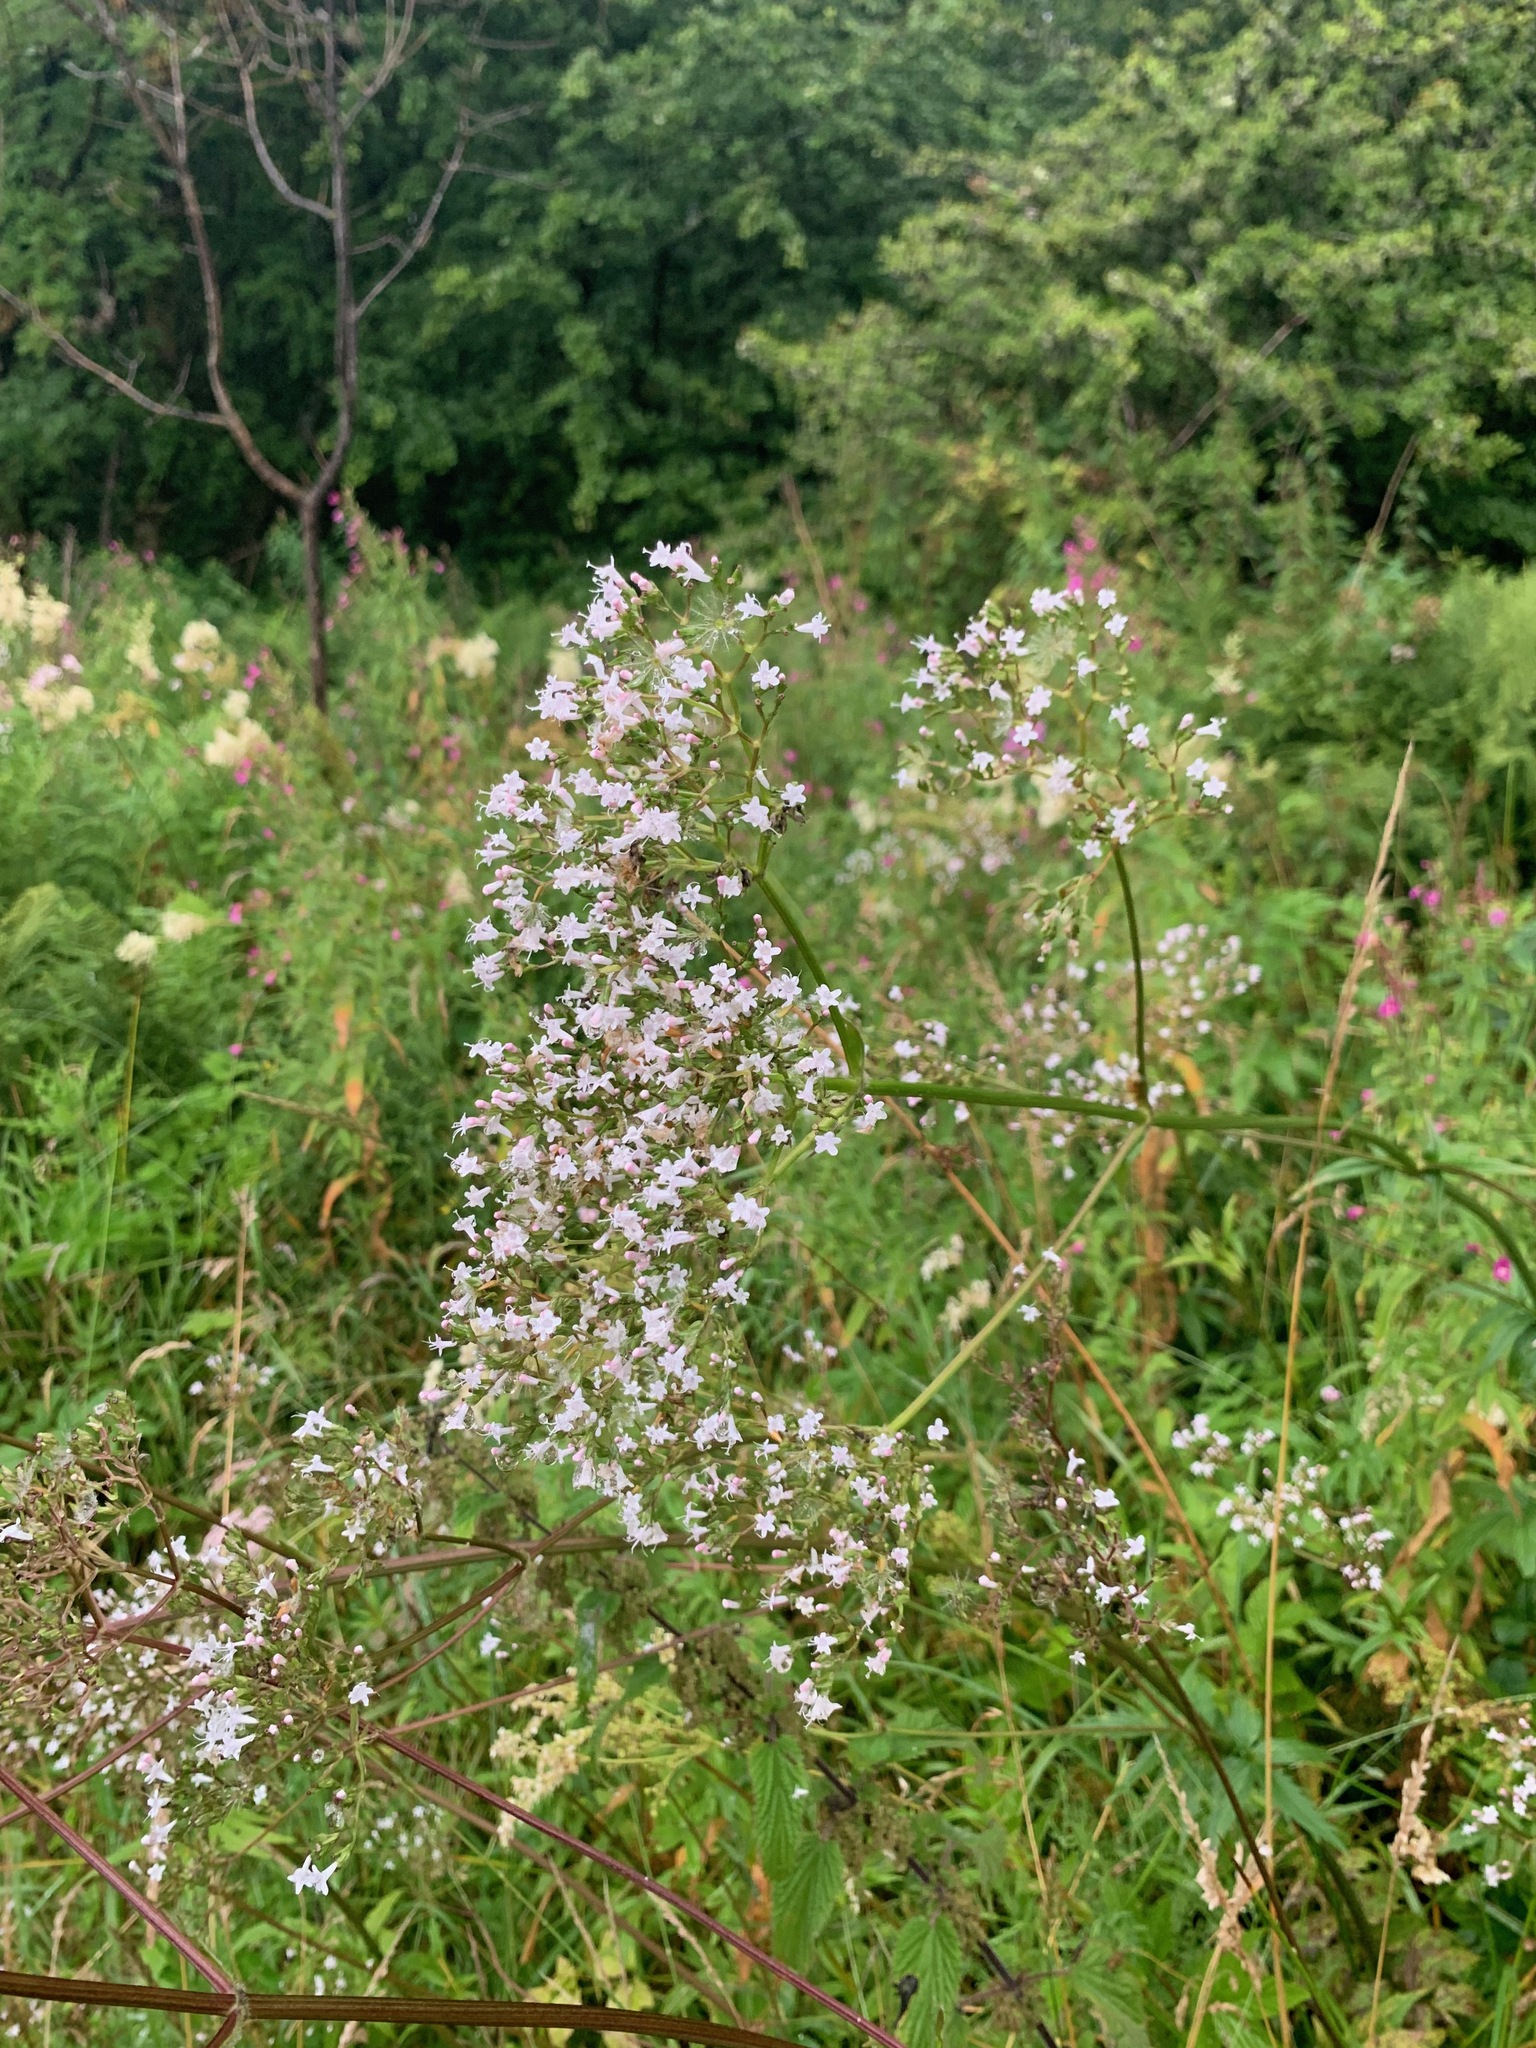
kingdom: Plantae
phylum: Tracheophyta
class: Magnoliopsida
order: Dipsacales
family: Caprifoliaceae
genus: Valeriana
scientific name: Valeriana officinalis
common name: Common valerian
